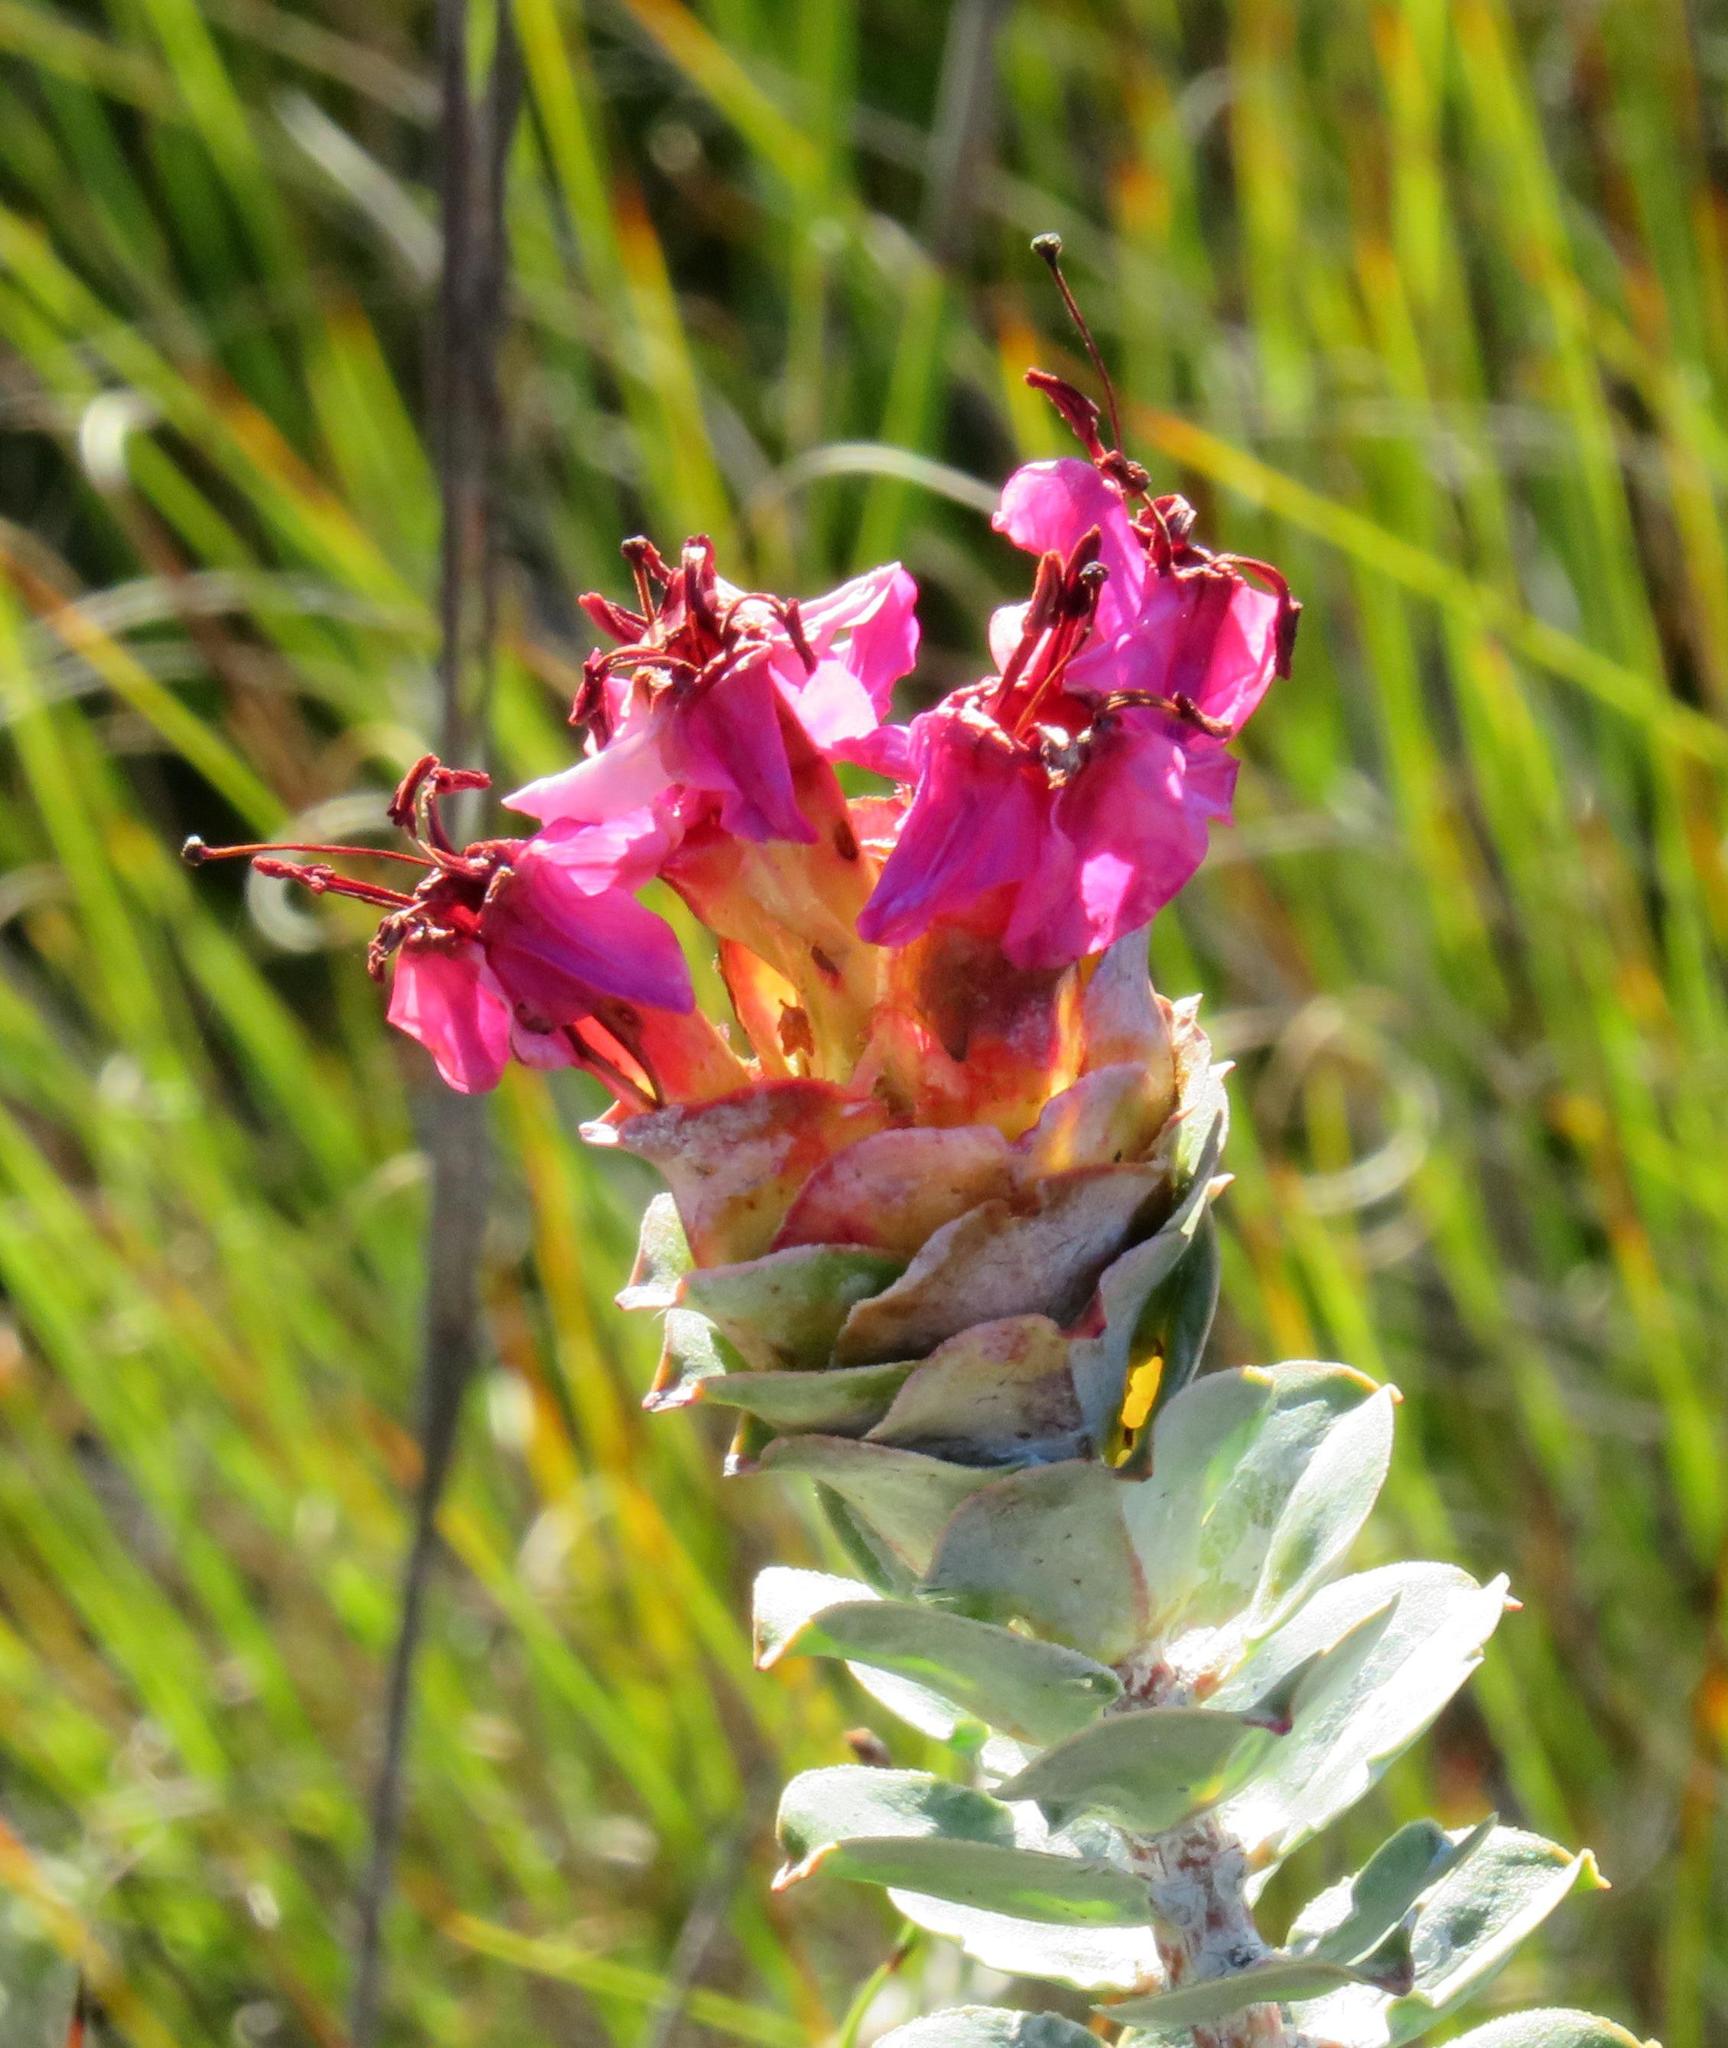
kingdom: Plantae
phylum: Tracheophyta
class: Magnoliopsida
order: Myrtales
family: Penaeaceae
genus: Saltera
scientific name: Saltera sarcocolla
